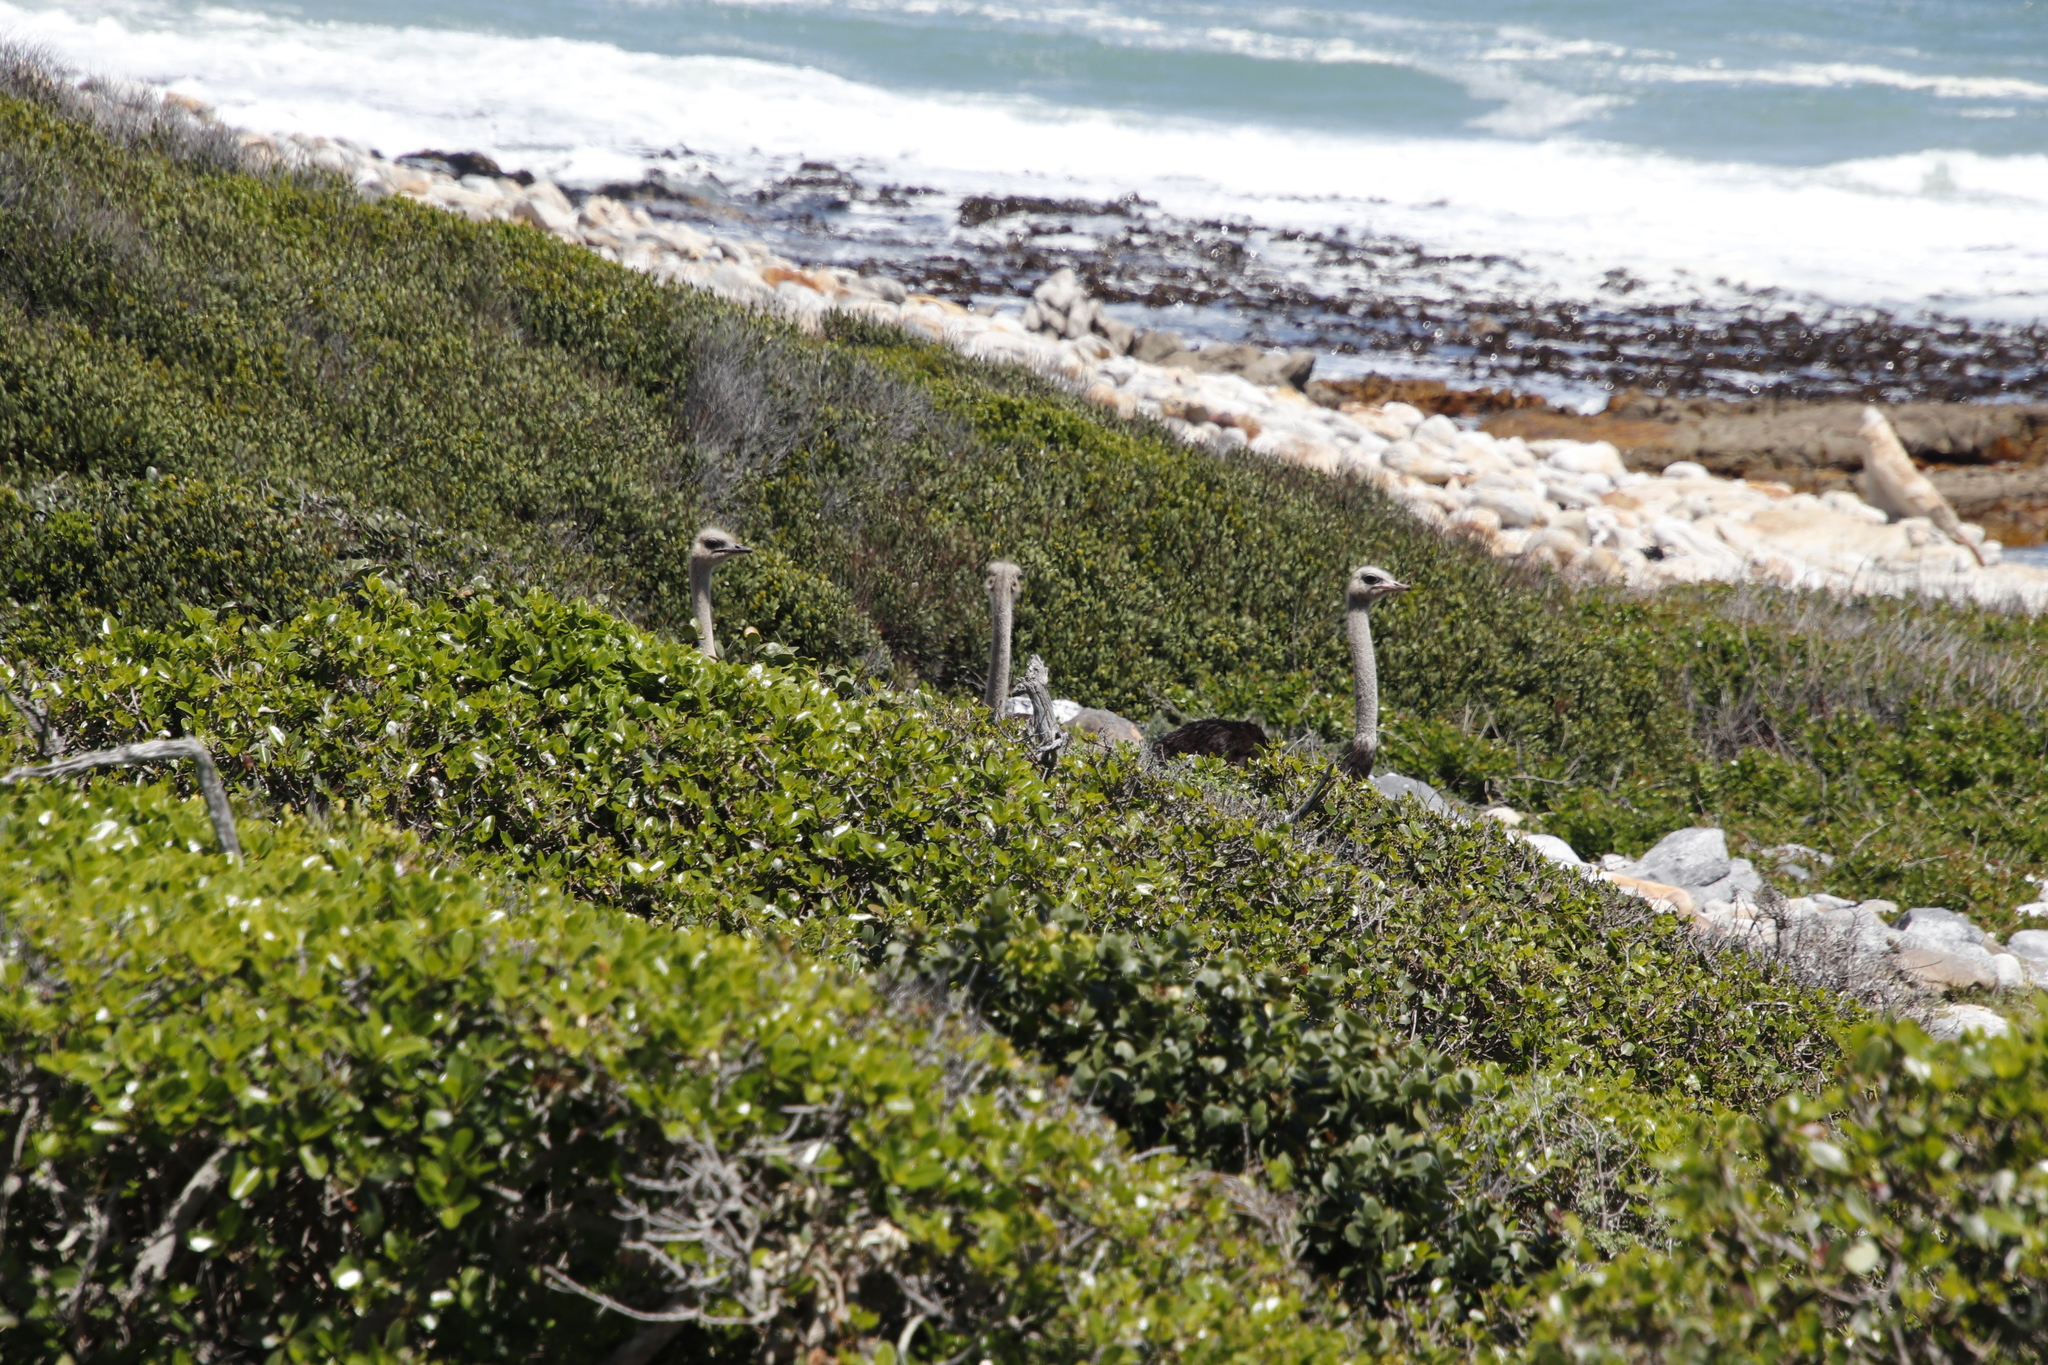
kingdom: Animalia
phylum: Chordata
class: Aves
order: Struthioniformes
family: Struthionidae
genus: Struthio
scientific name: Struthio camelus
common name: Common ostrich
